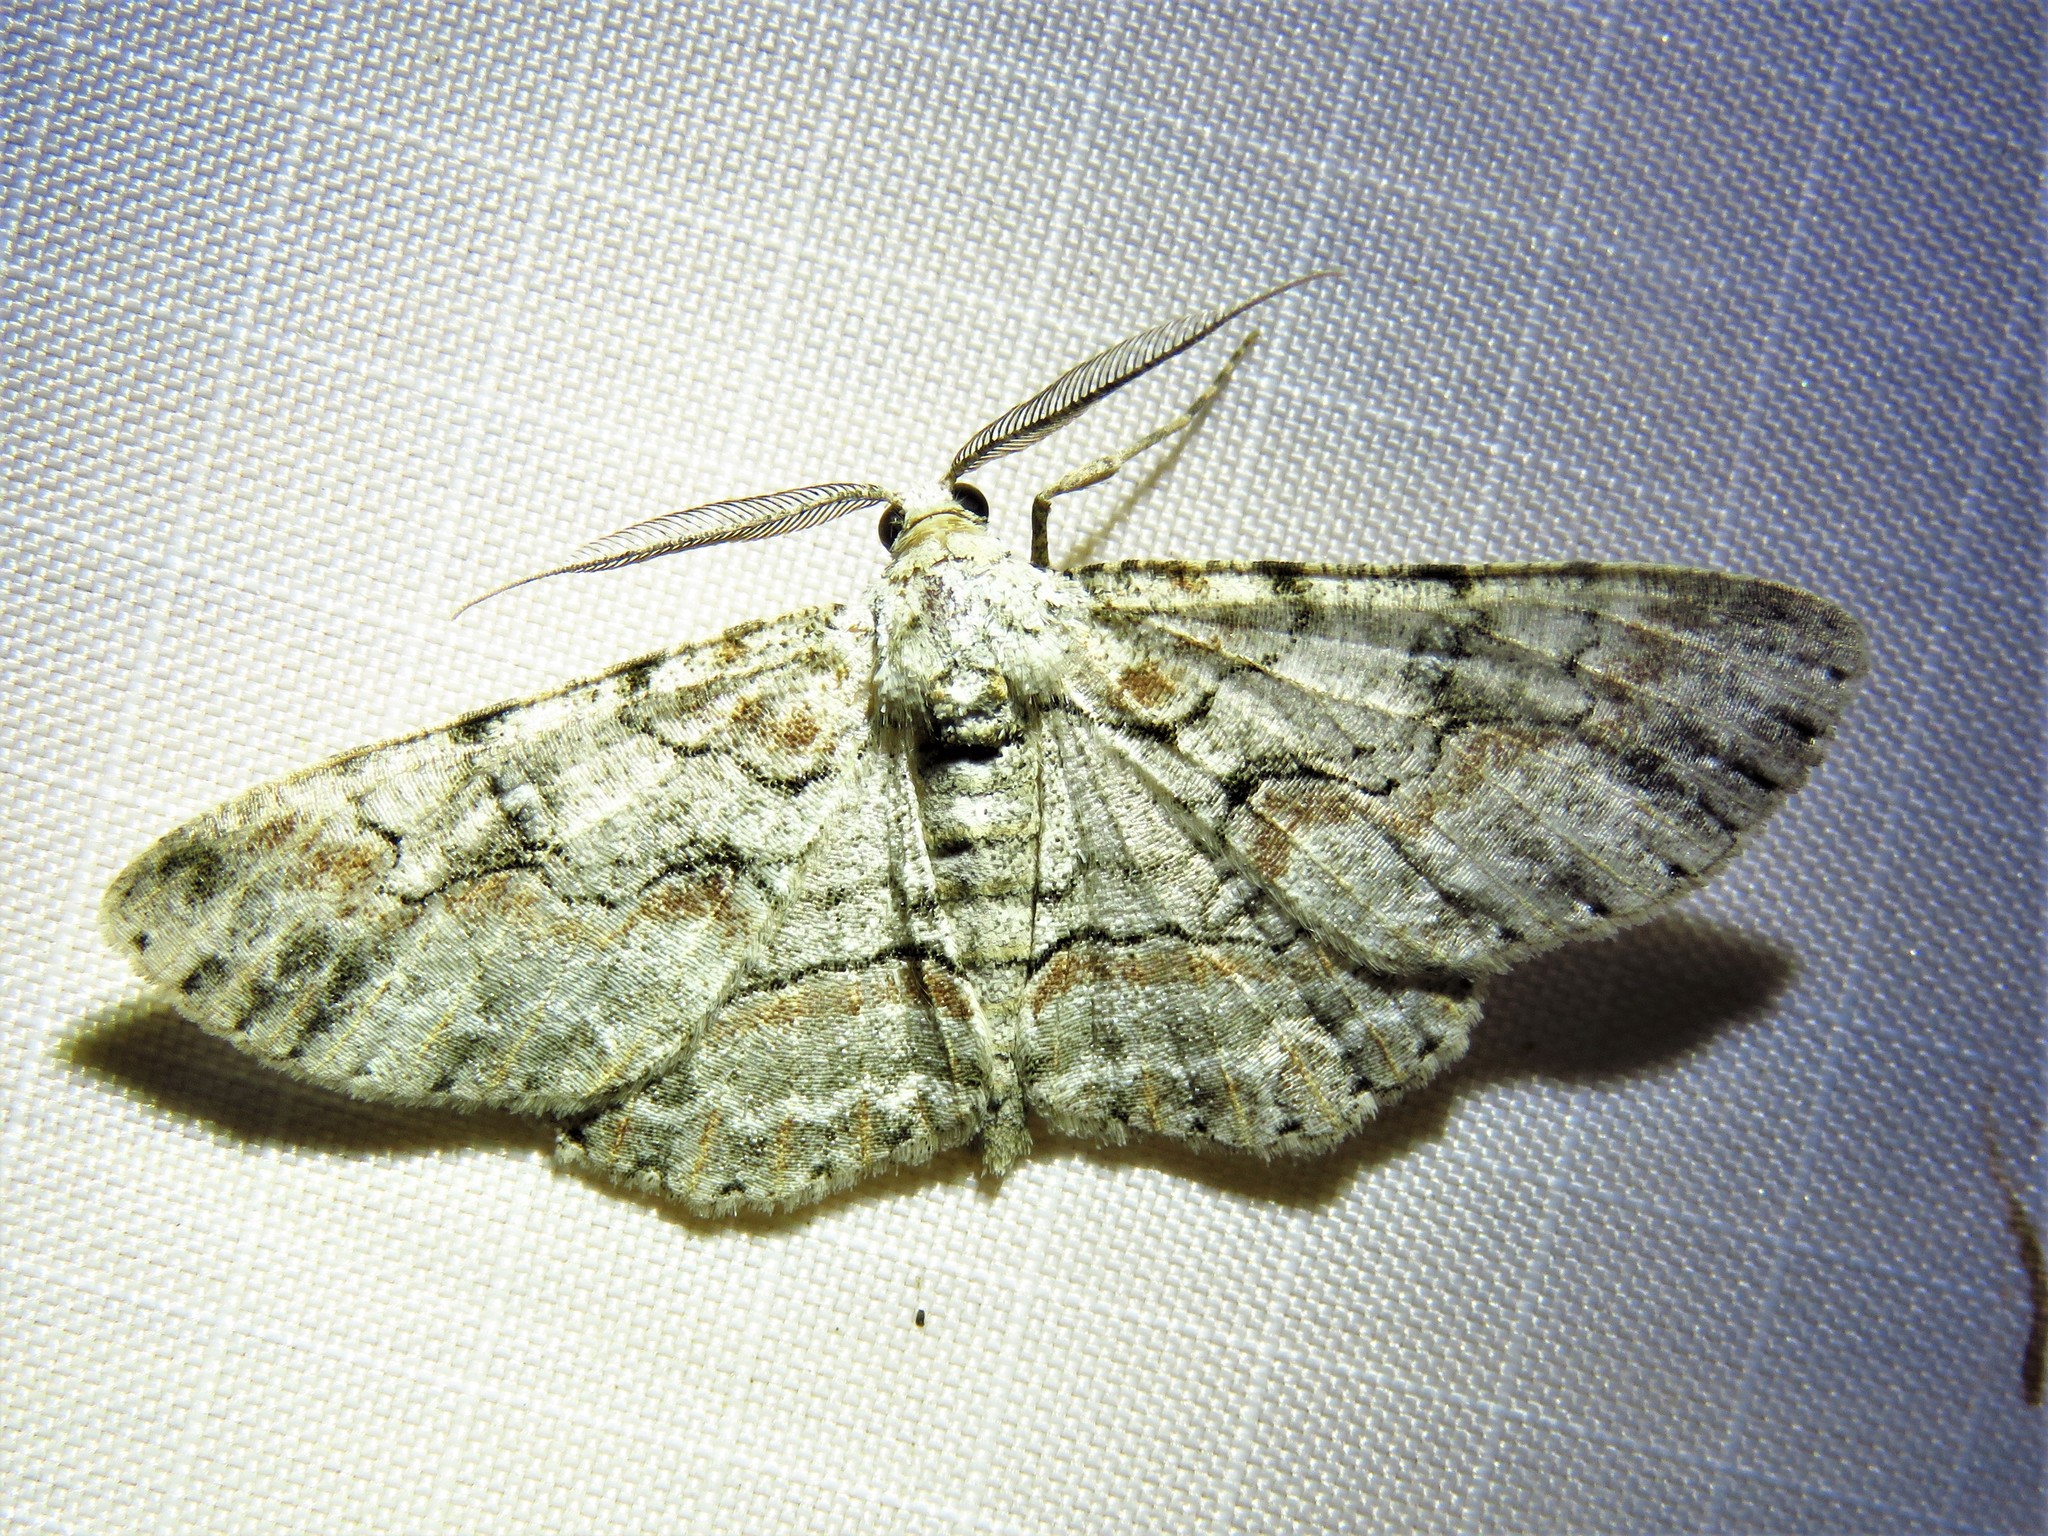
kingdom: Animalia
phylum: Arthropoda
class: Insecta
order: Lepidoptera
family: Geometridae
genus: Iridopsis
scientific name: Iridopsis defectaria
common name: Brown-shaded gray
